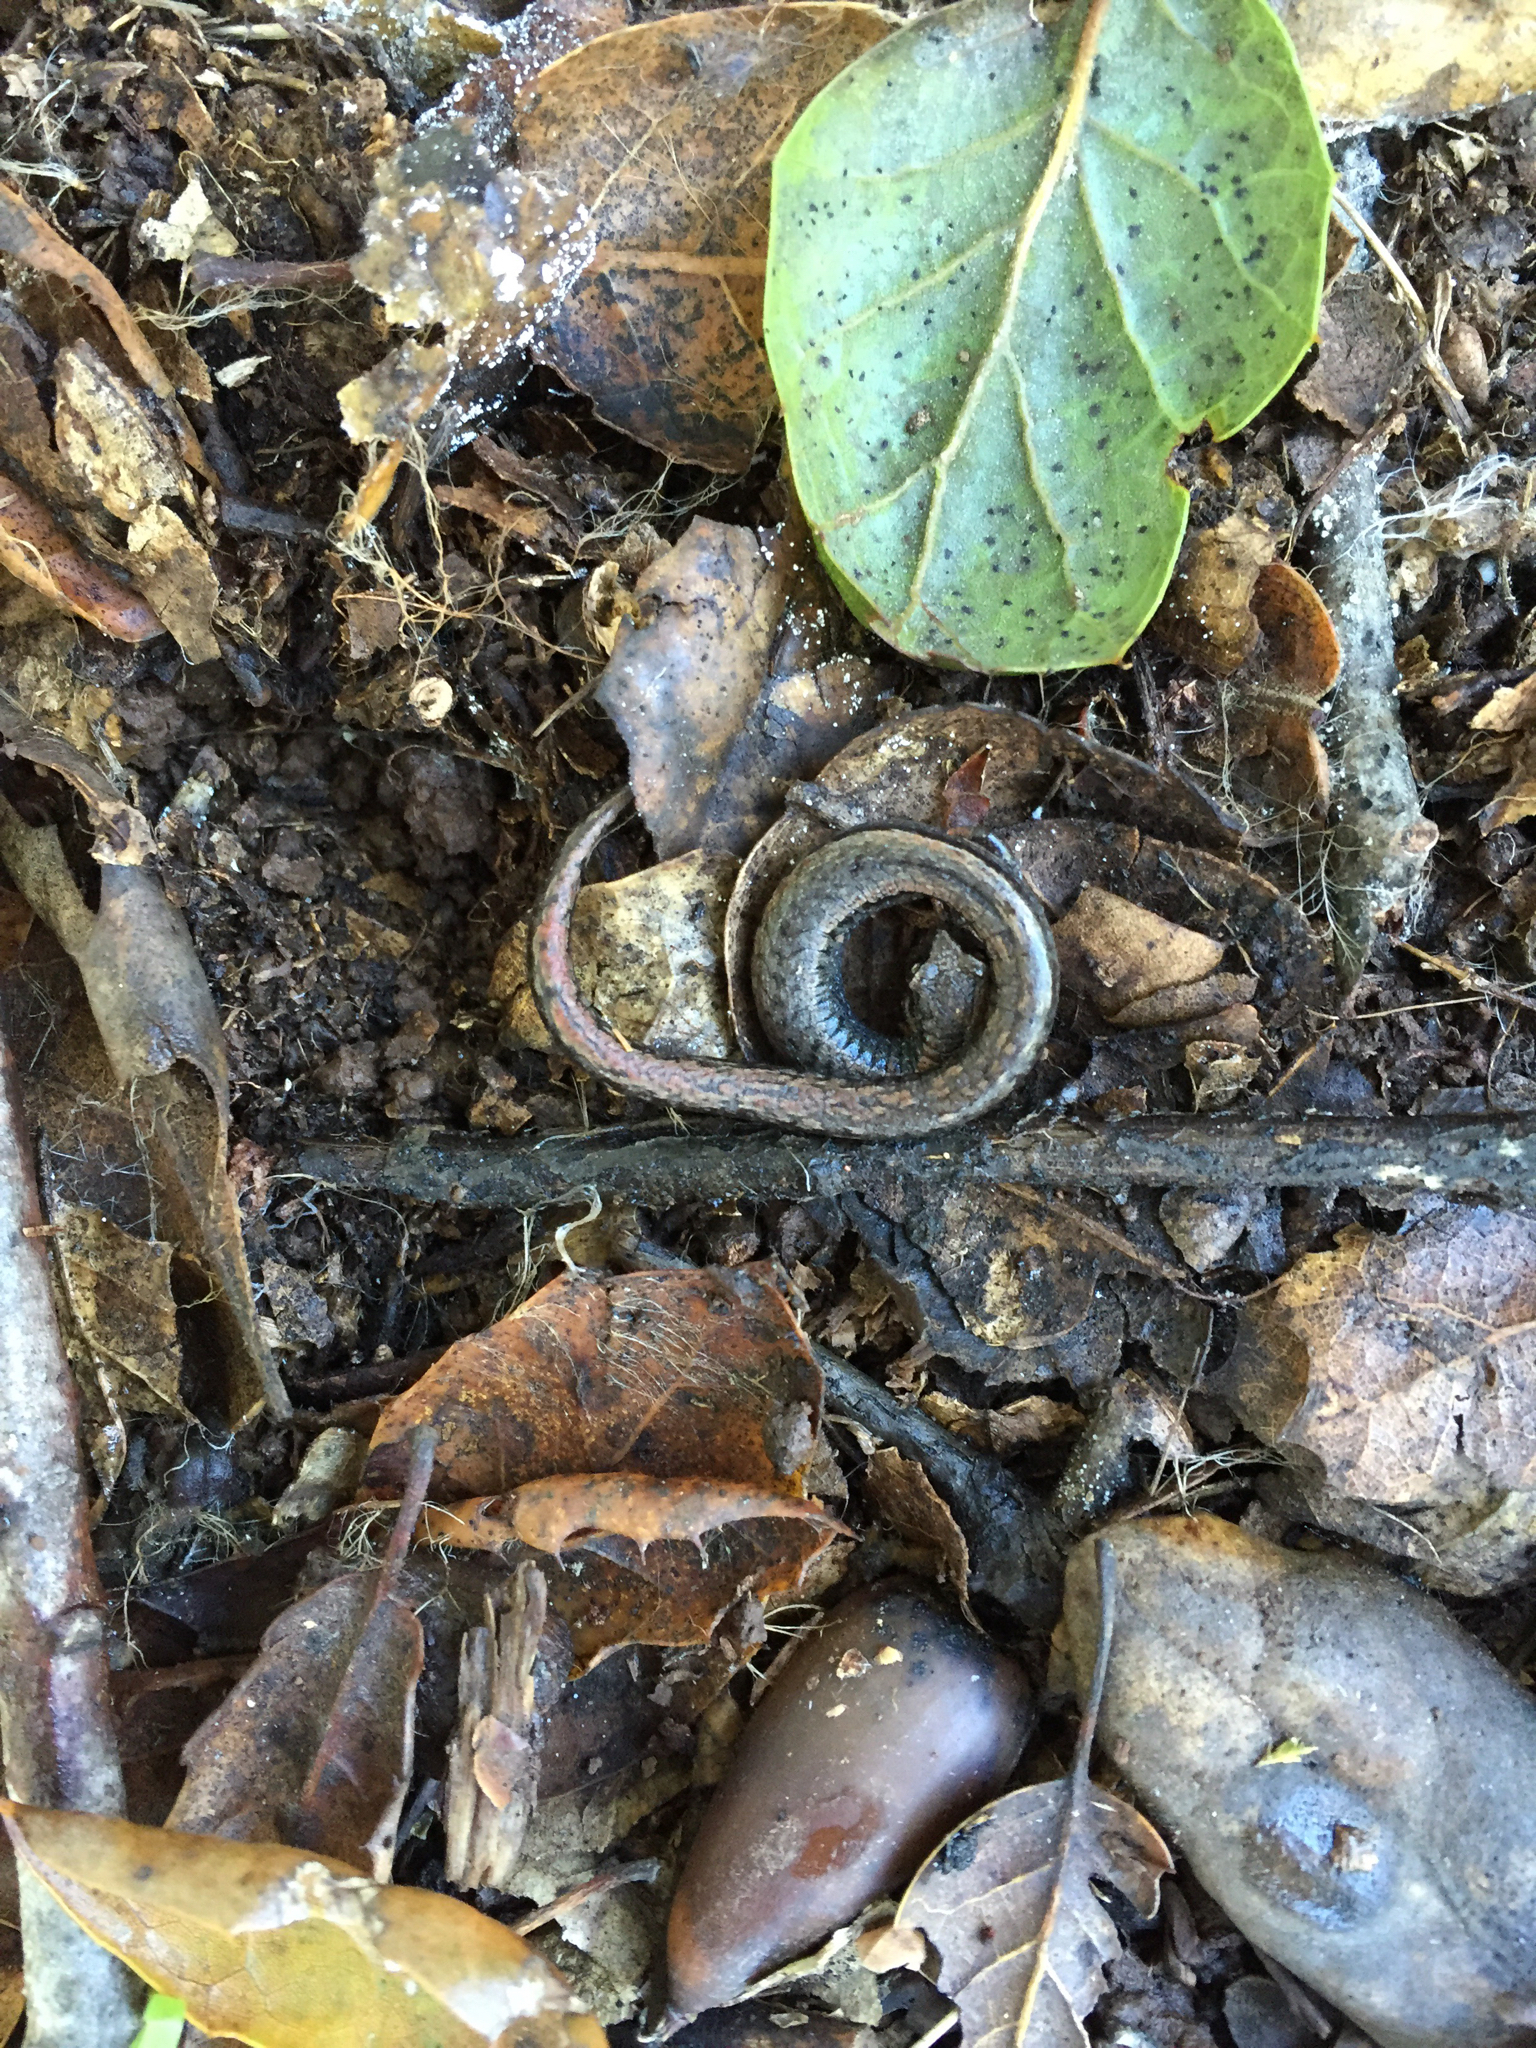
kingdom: Animalia
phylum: Chordata
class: Amphibia
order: Caudata
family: Plethodontidae
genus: Batrachoseps
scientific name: Batrachoseps attenuatus
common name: California slender salamander
